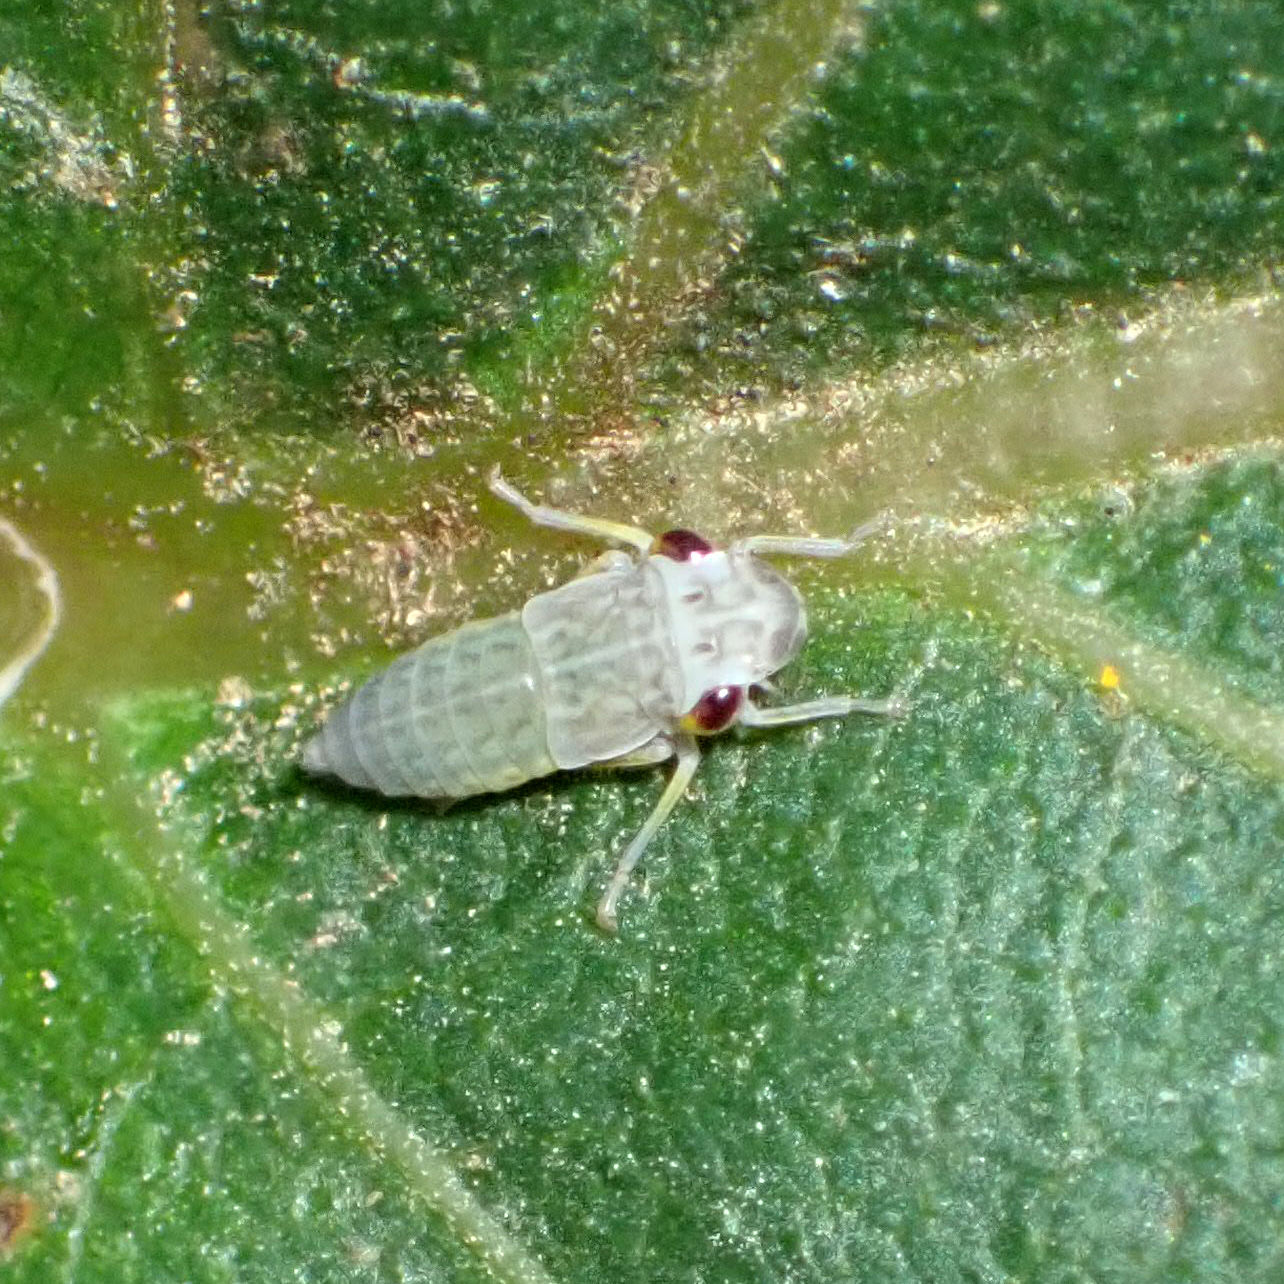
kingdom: Animalia
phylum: Arthropoda
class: Insecta
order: Hemiptera
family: Cicadellidae
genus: Oncometopia
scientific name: Oncometopia orbona
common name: Broad-headed sharpshooter
